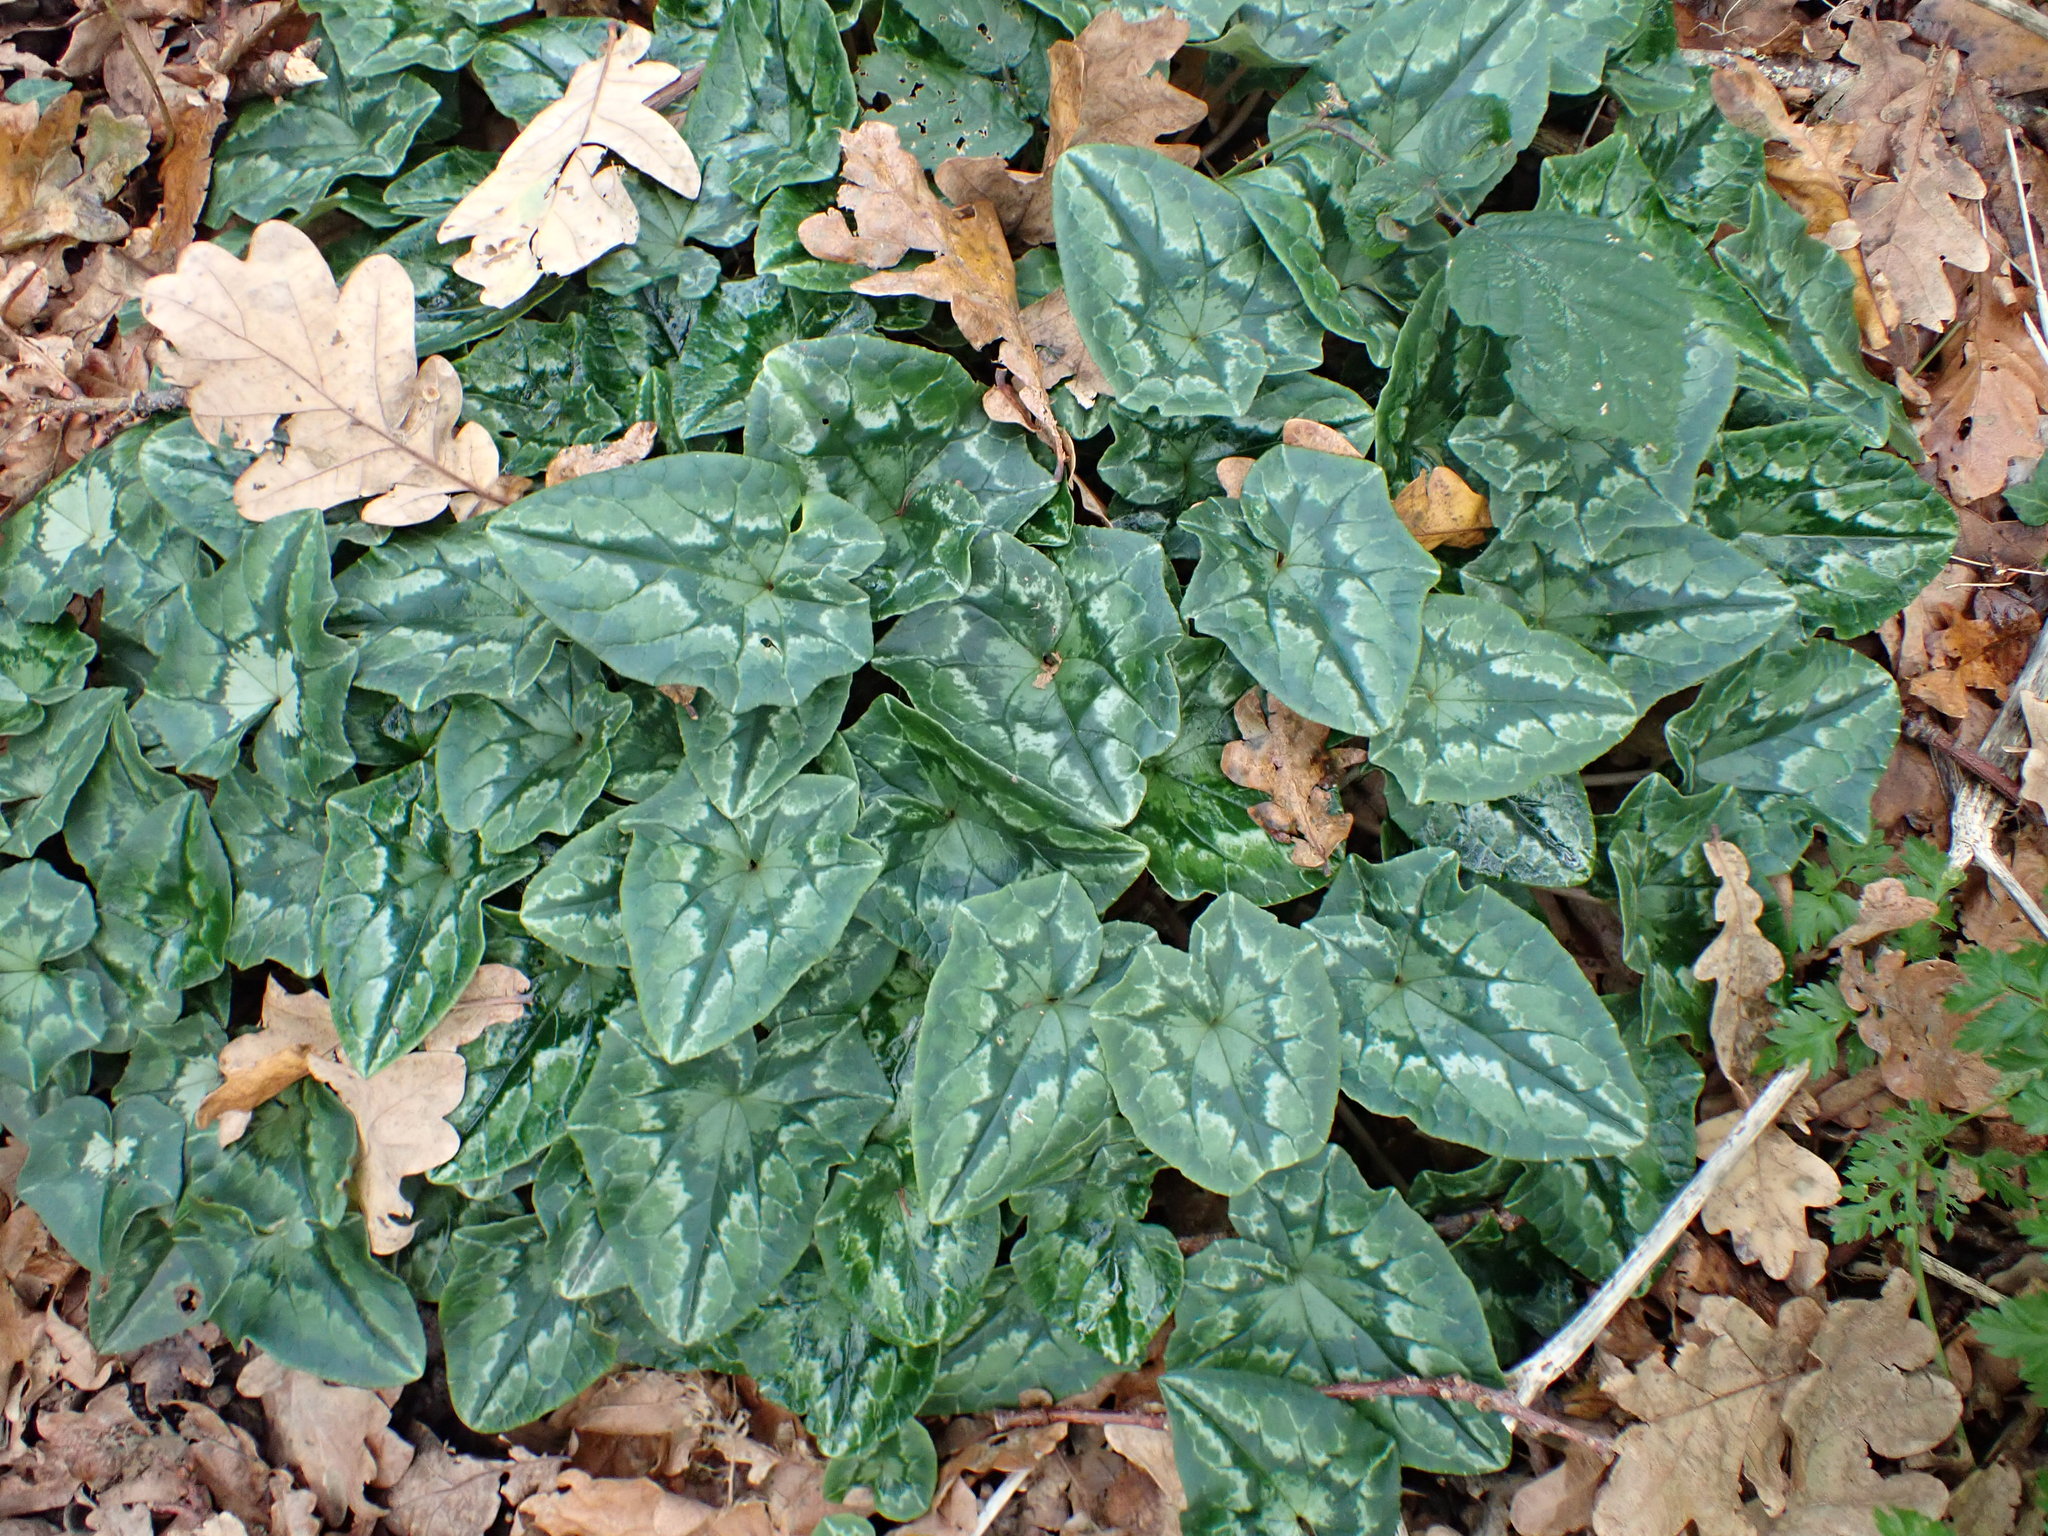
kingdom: Plantae
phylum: Tracheophyta
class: Magnoliopsida
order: Ericales
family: Primulaceae
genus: Cyclamen
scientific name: Cyclamen hederifolium
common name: Sowbread
